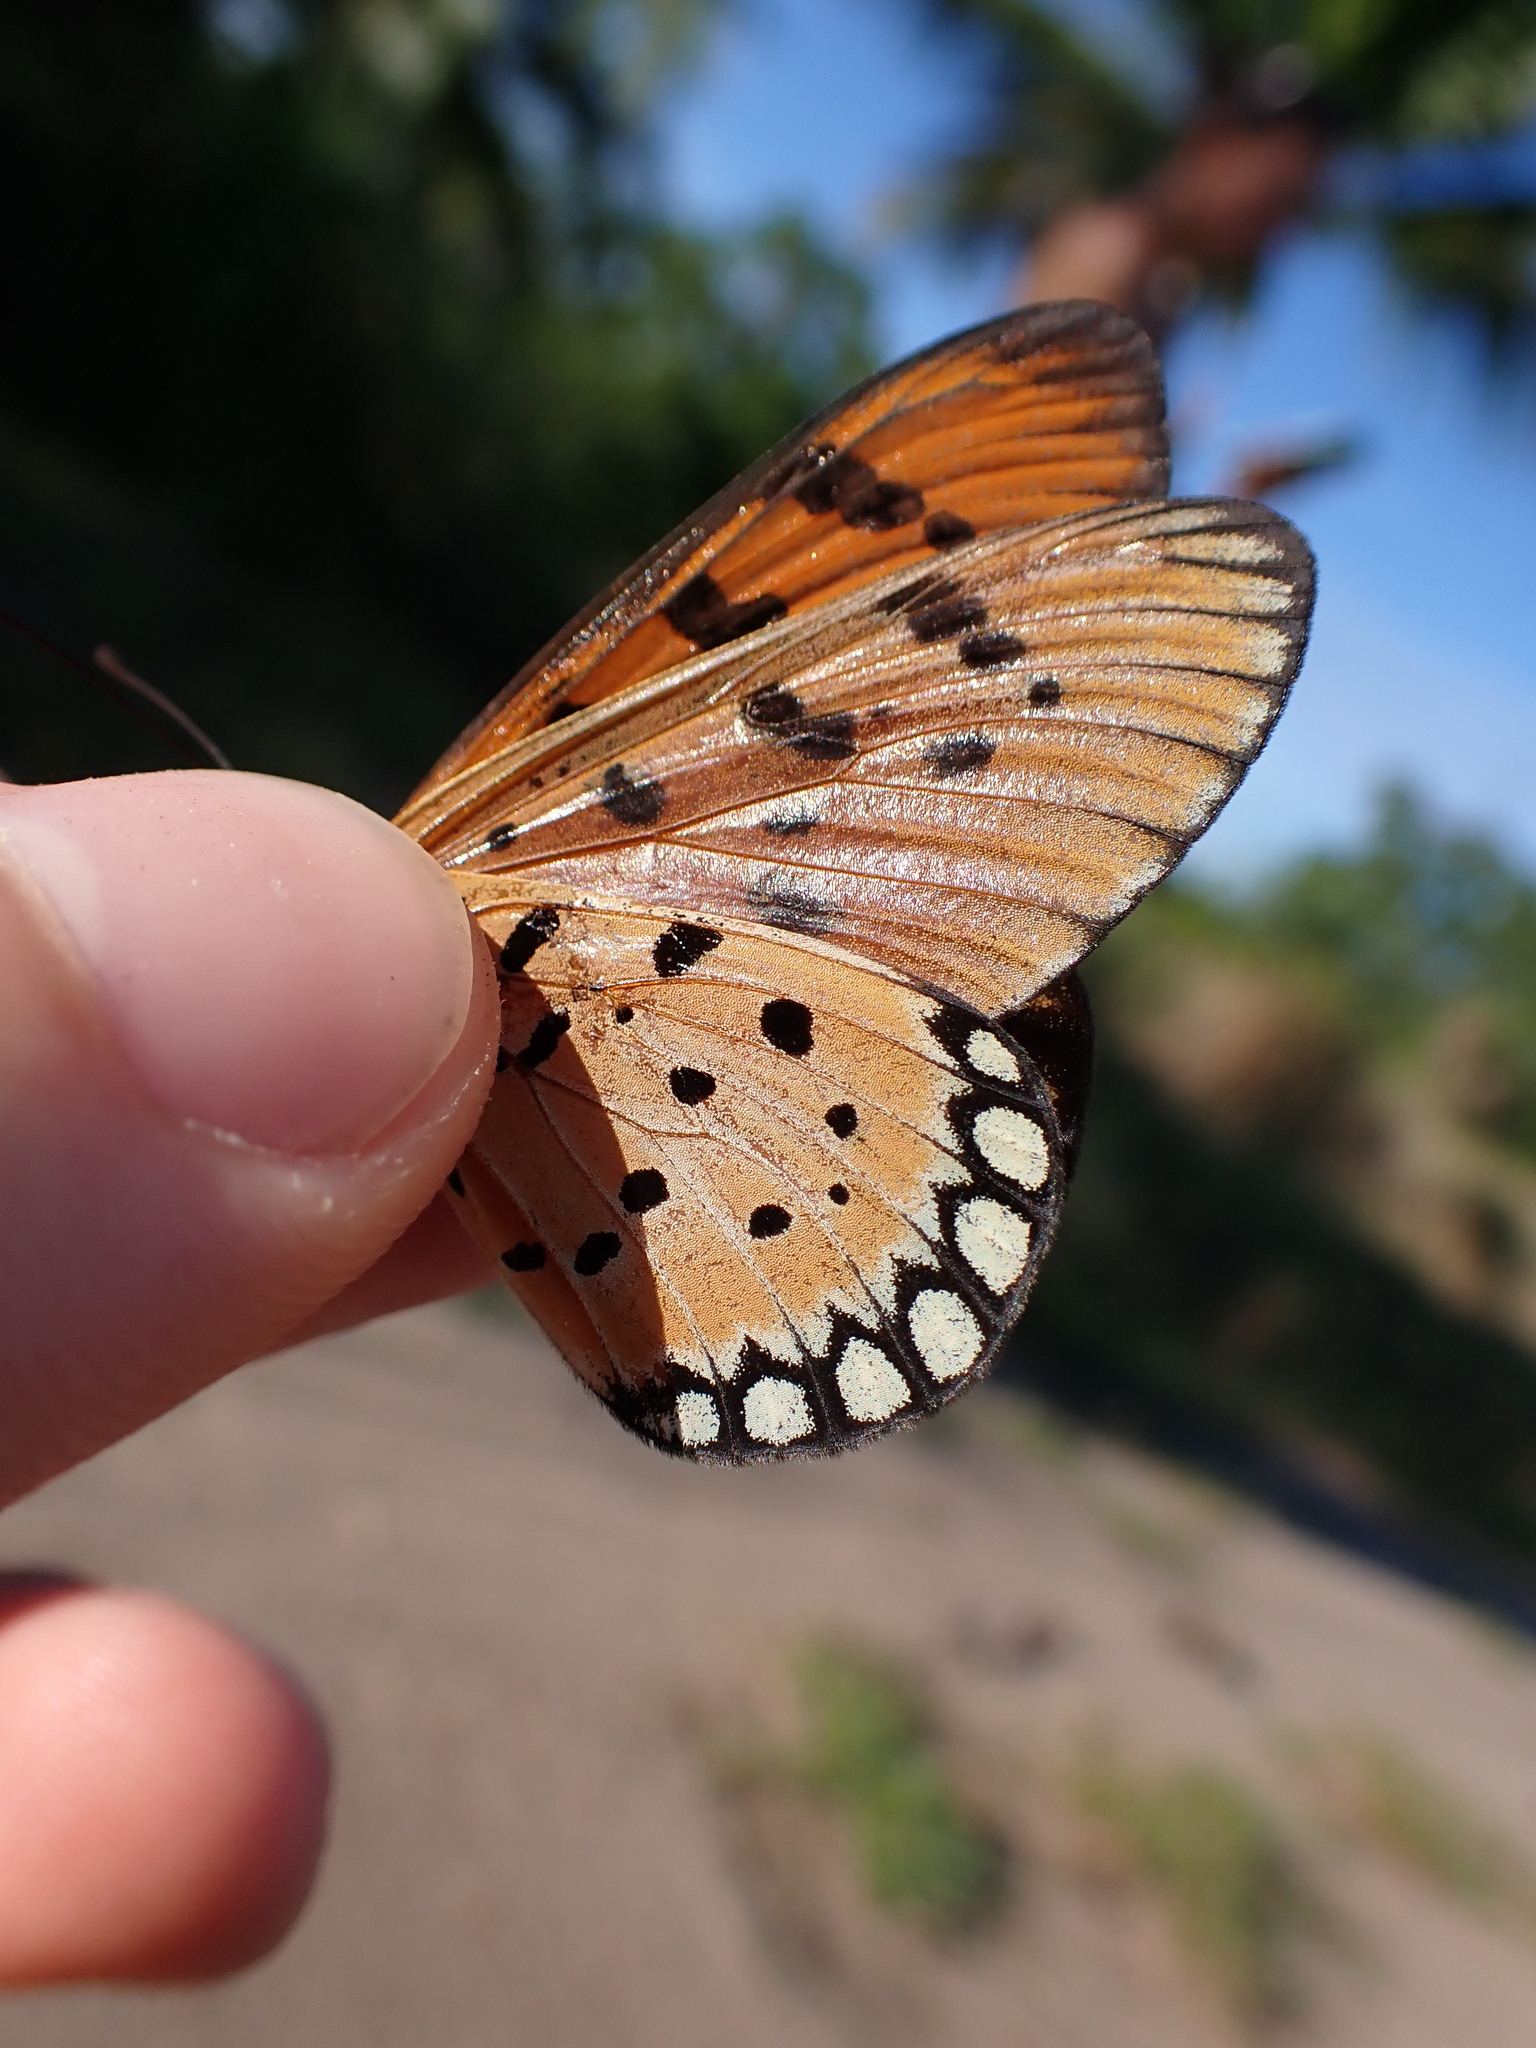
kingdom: Animalia
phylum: Arthropoda
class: Insecta
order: Lepidoptera
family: Nymphalidae
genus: Acraea
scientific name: Acraea terpsicore
